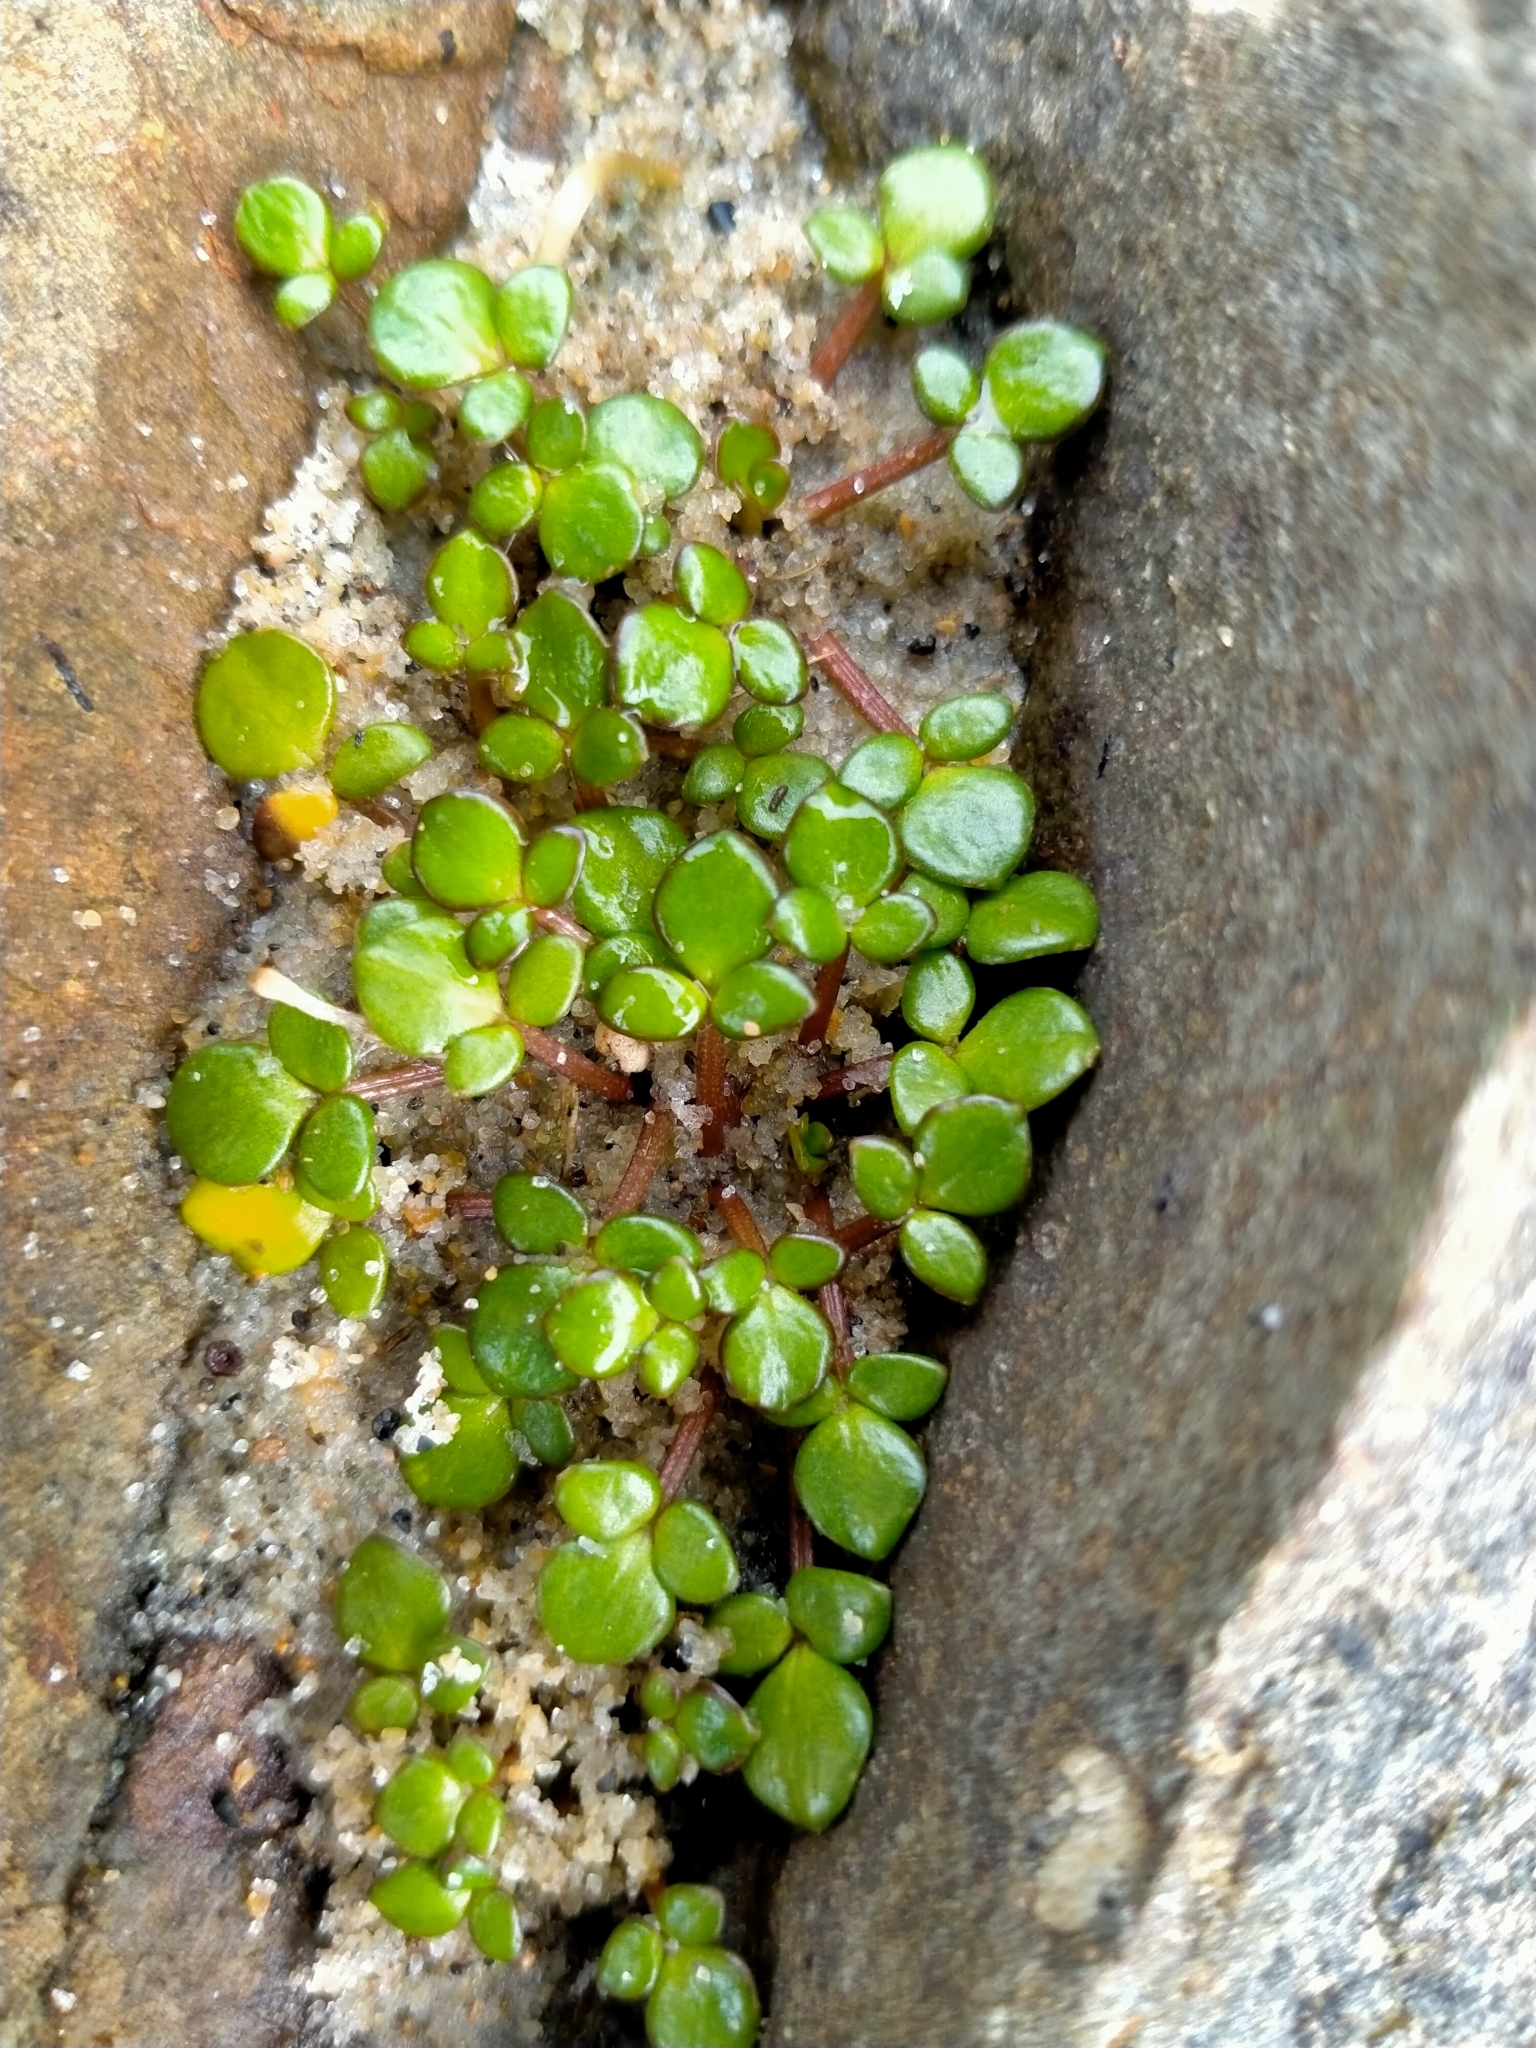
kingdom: Plantae
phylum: Tracheophyta
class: Magnoliopsida
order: Ranunculales
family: Ranunculaceae
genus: Ranunculus
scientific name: Ranunculus acaulis
